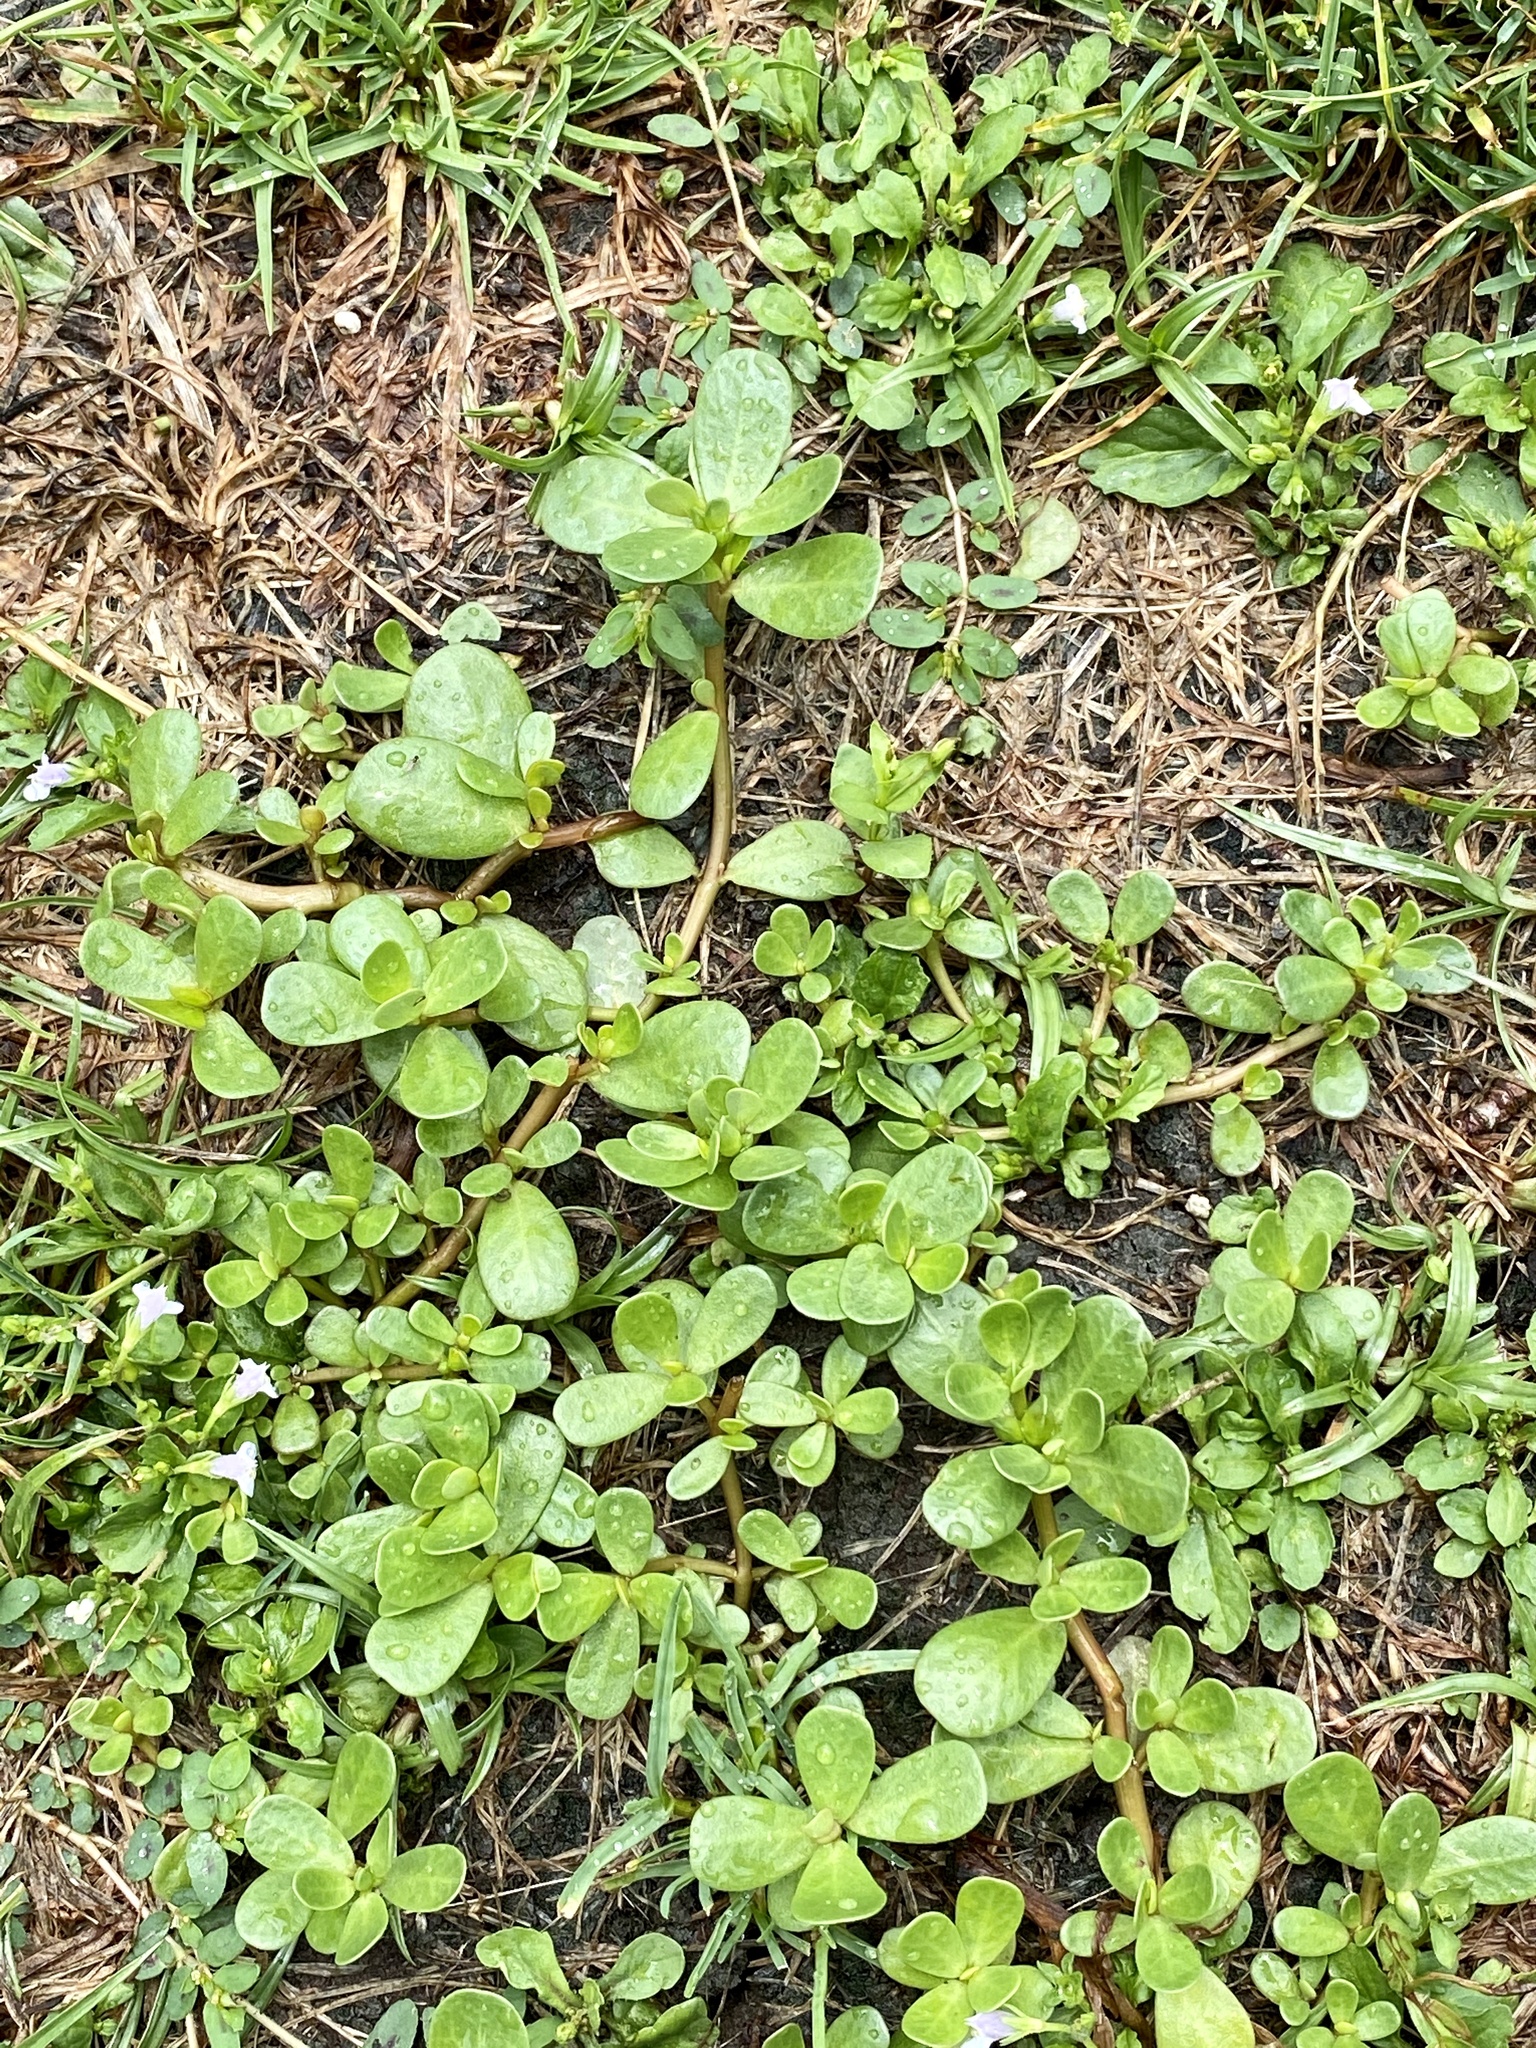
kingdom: Plantae
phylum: Tracheophyta
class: Magnoliopsida
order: Caryophyllales
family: Portulacaceae
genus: Portulaca
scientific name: Portulaca oleracea
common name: Common purslane
